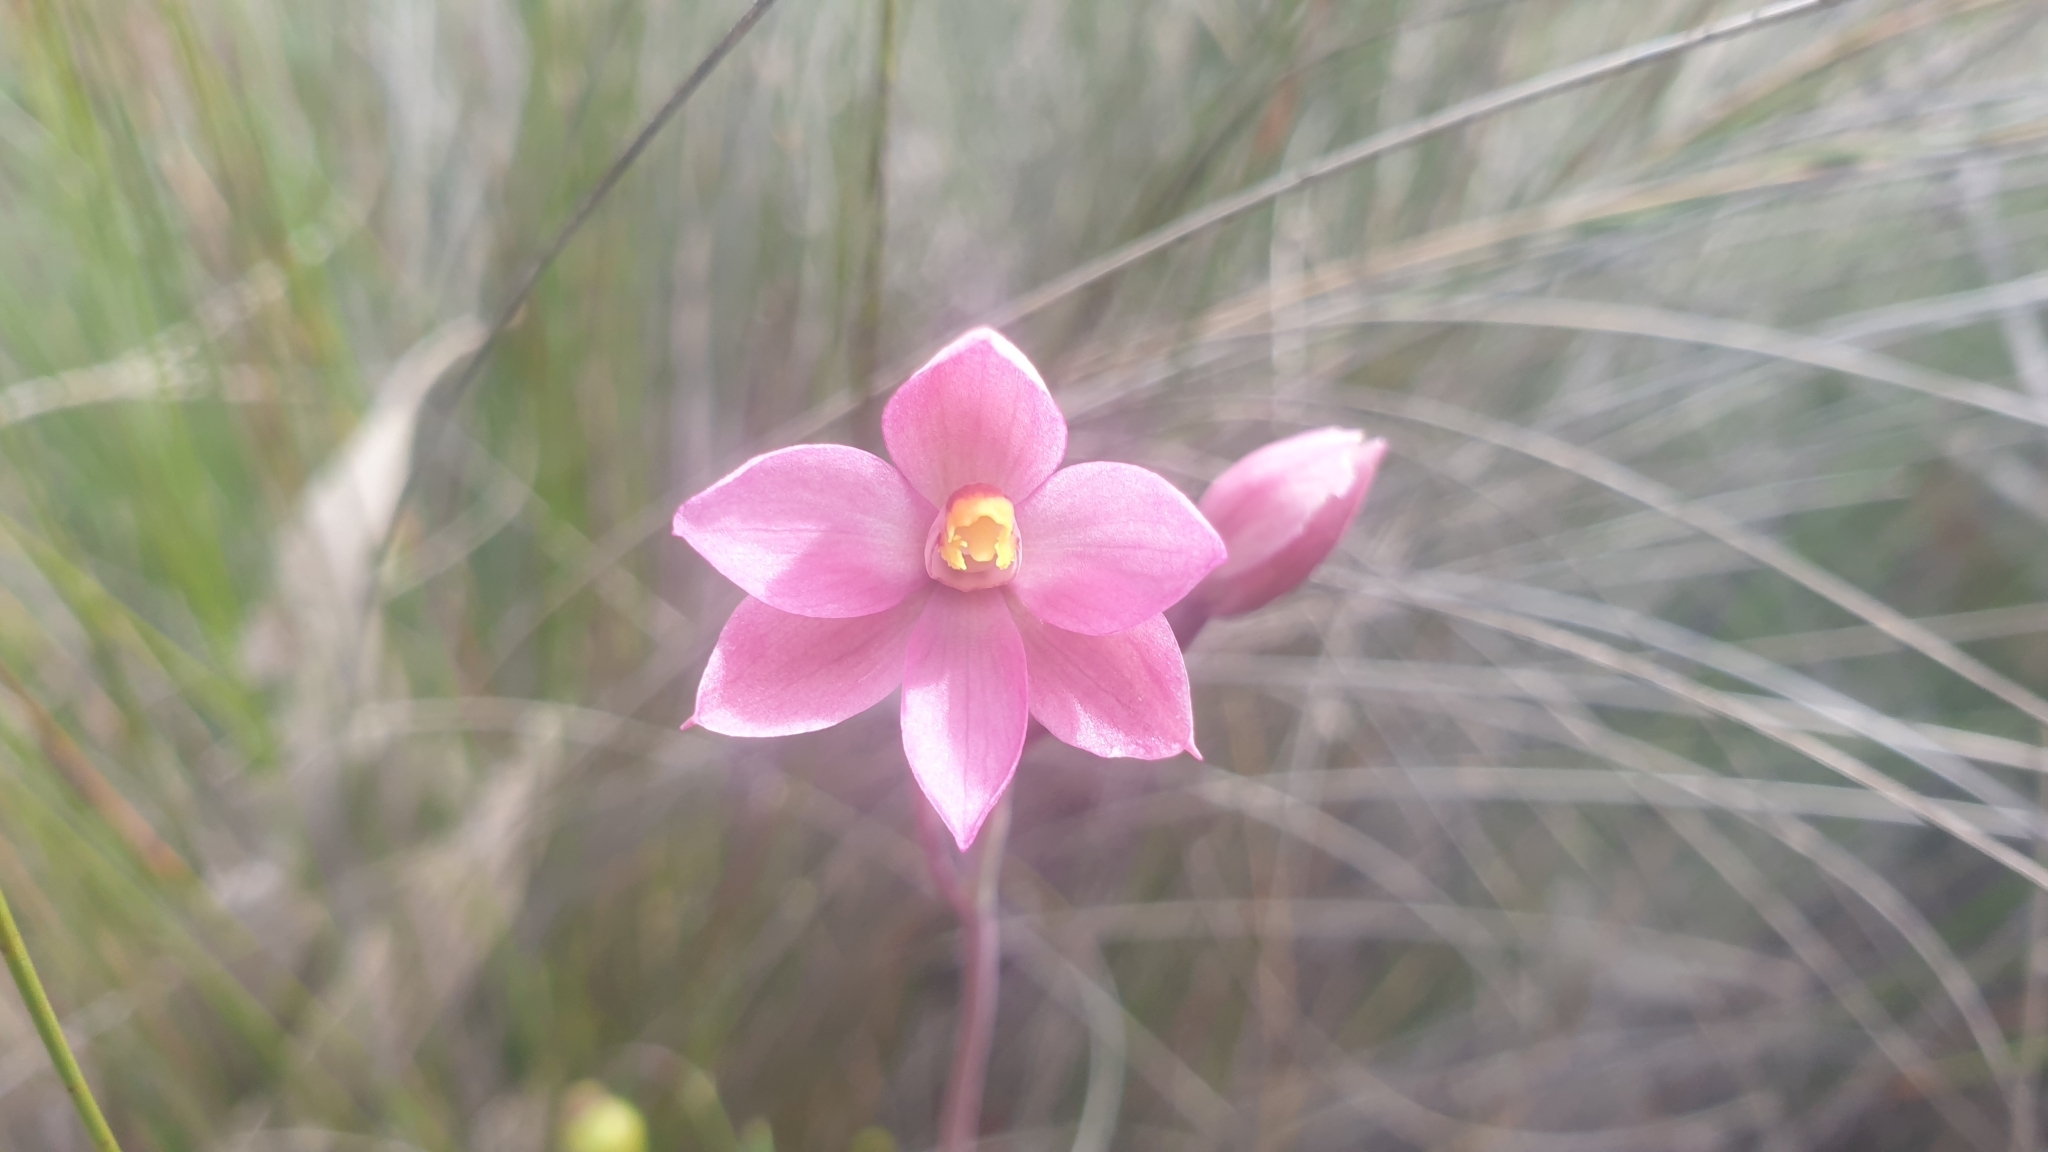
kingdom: Plantae
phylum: Tracheophyta
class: Liliopsida
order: Asparagales
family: Orchidaceae
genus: Thelymitra
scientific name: Thelymitra rubra
